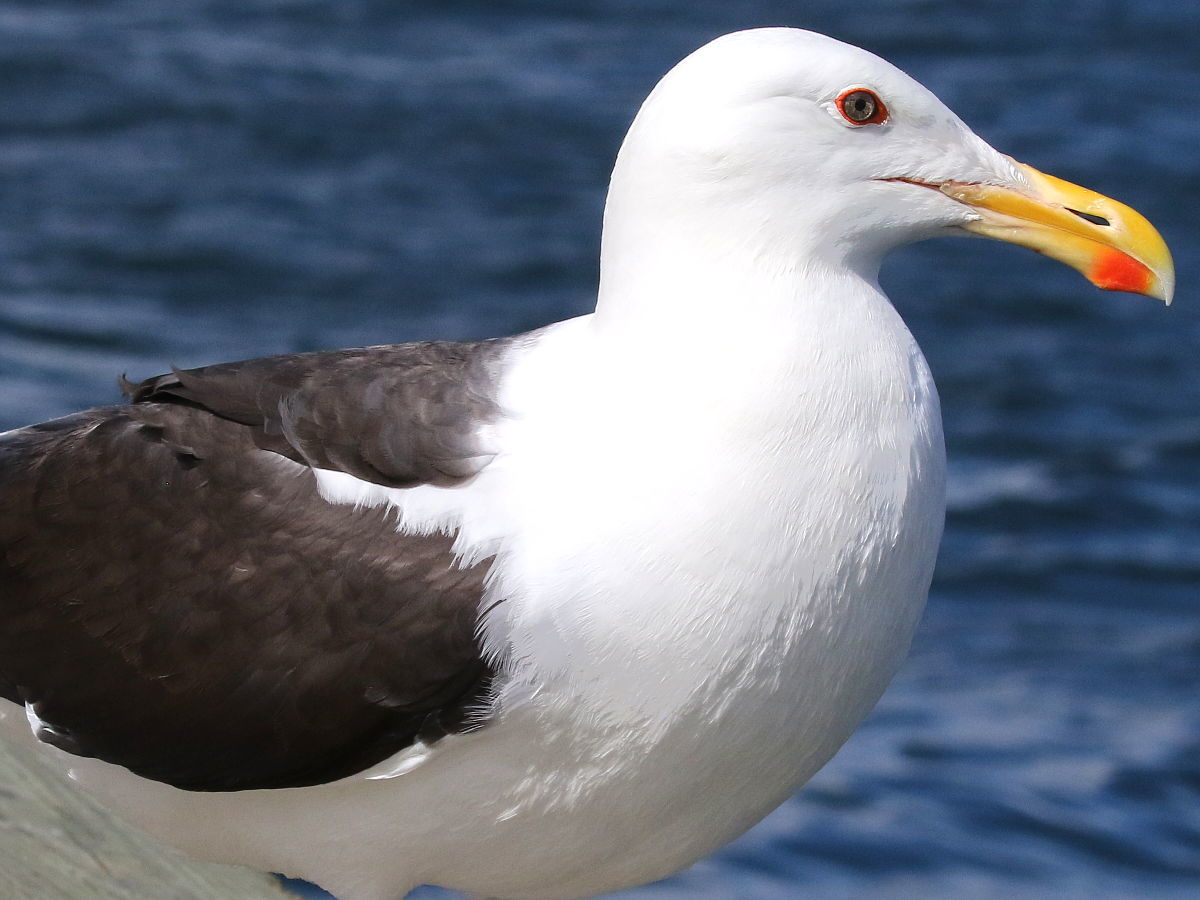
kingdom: Animalia
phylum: Chordata
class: Aves
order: Charadriiformes
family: Laridae
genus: Larus
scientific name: Larus marinus
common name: Great black-backed gull
